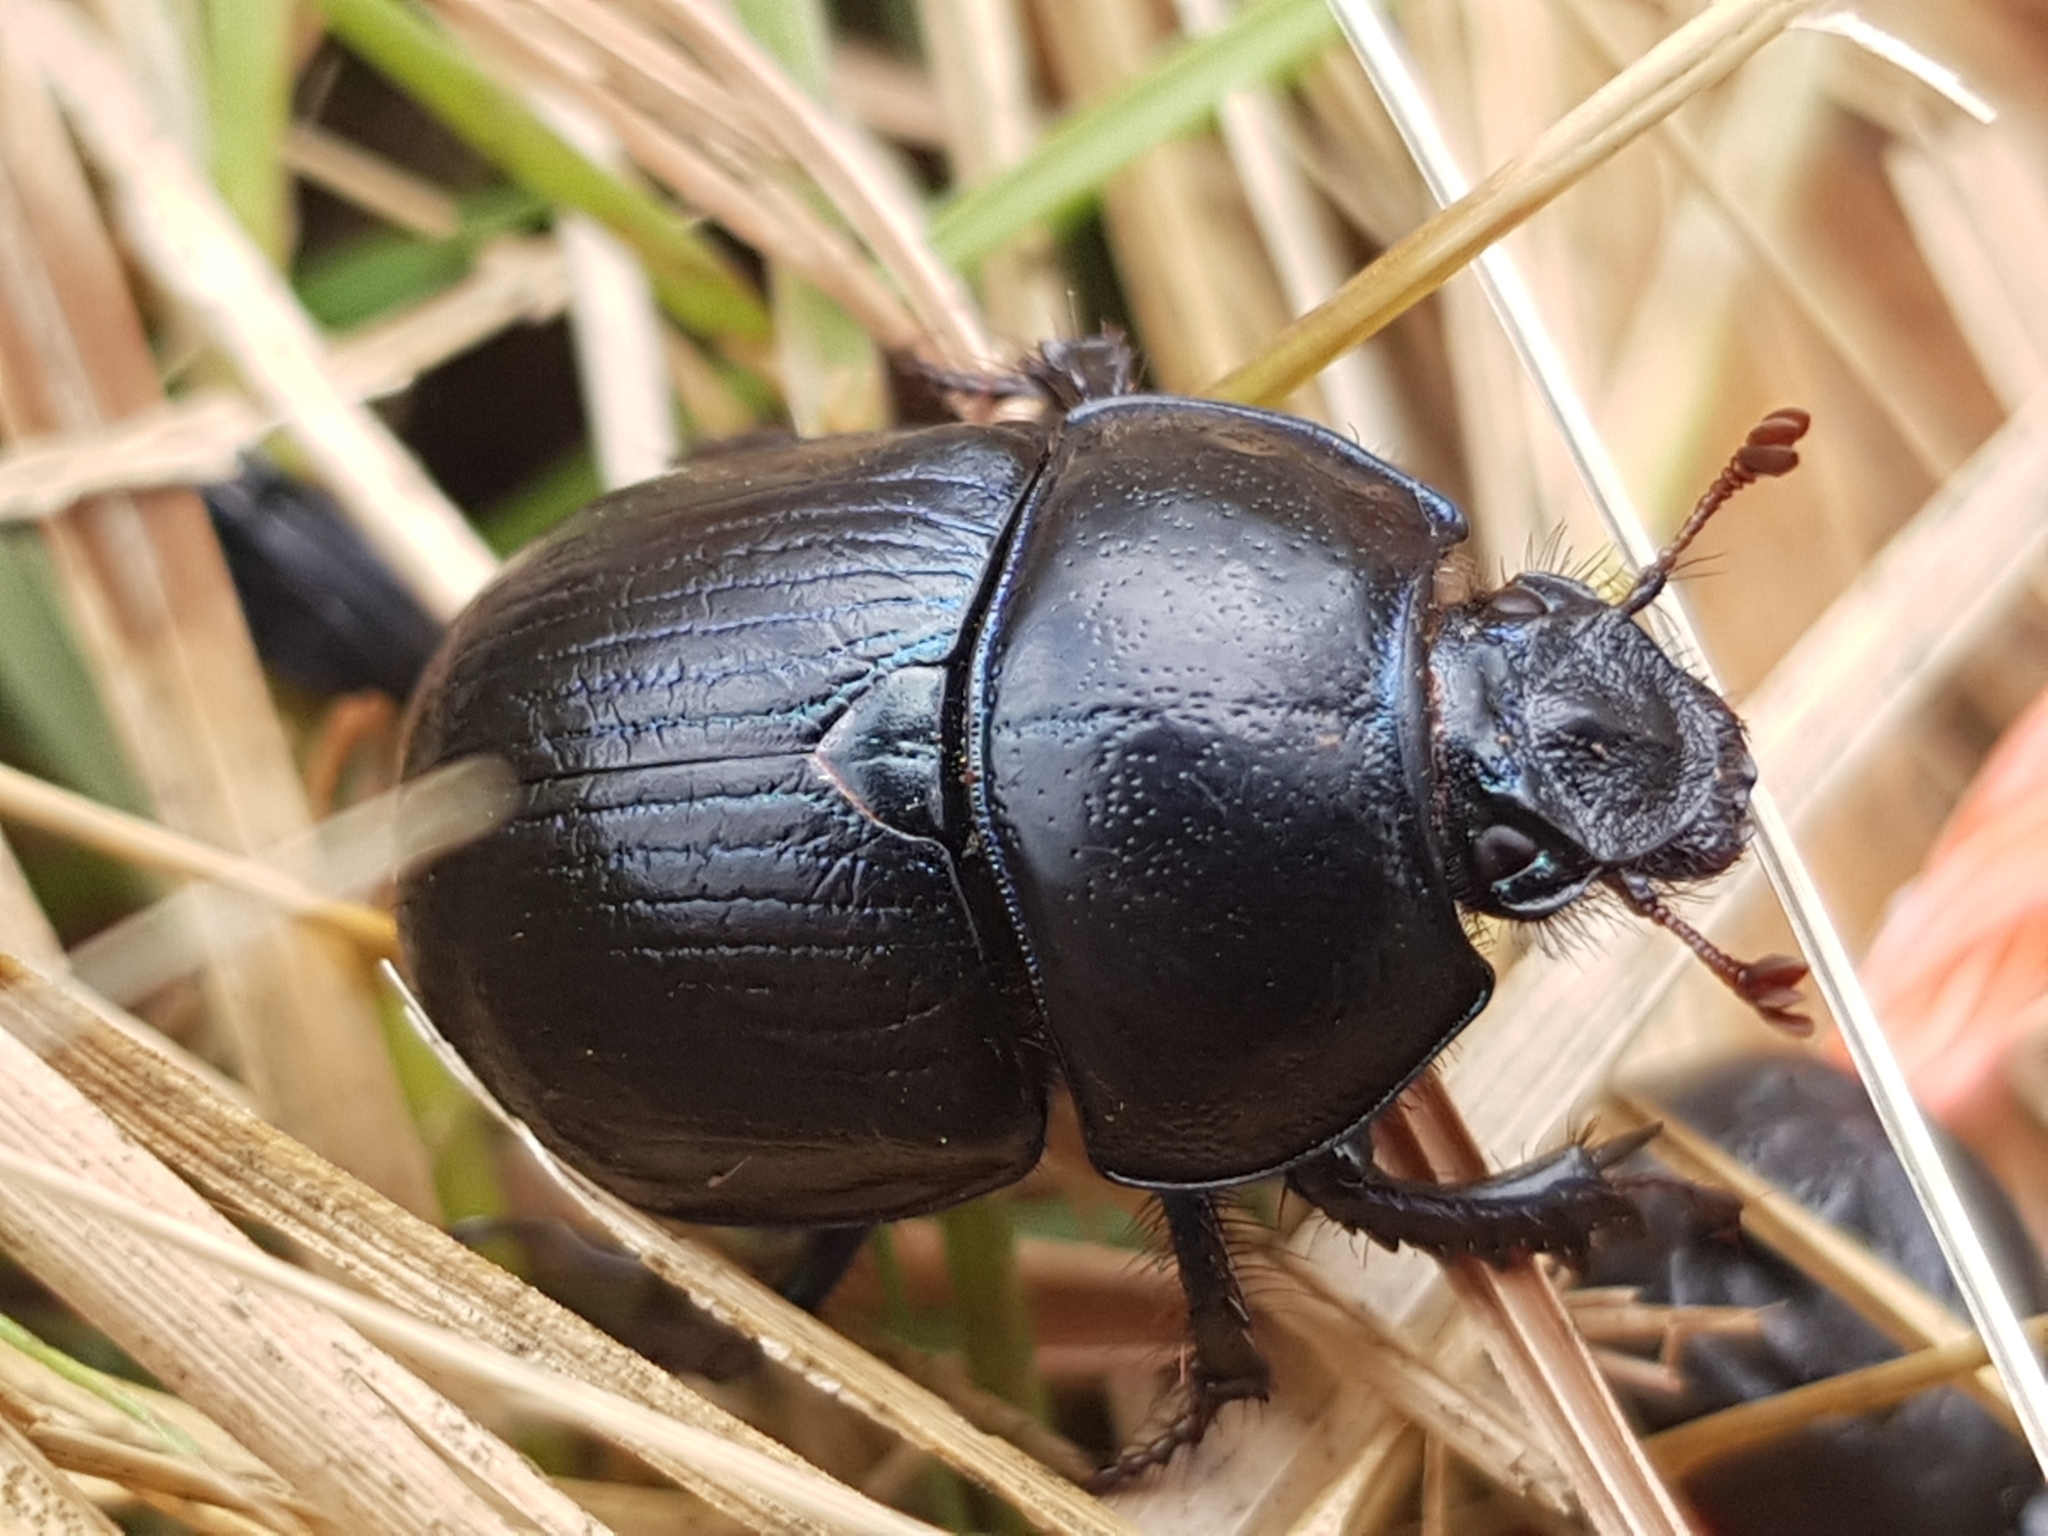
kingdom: Animalia
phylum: Arthropoda
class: Insecta
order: Coleoptera
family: Geotrupidae
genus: Anoplotrupes
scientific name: Anoplotrupes stercorosus
